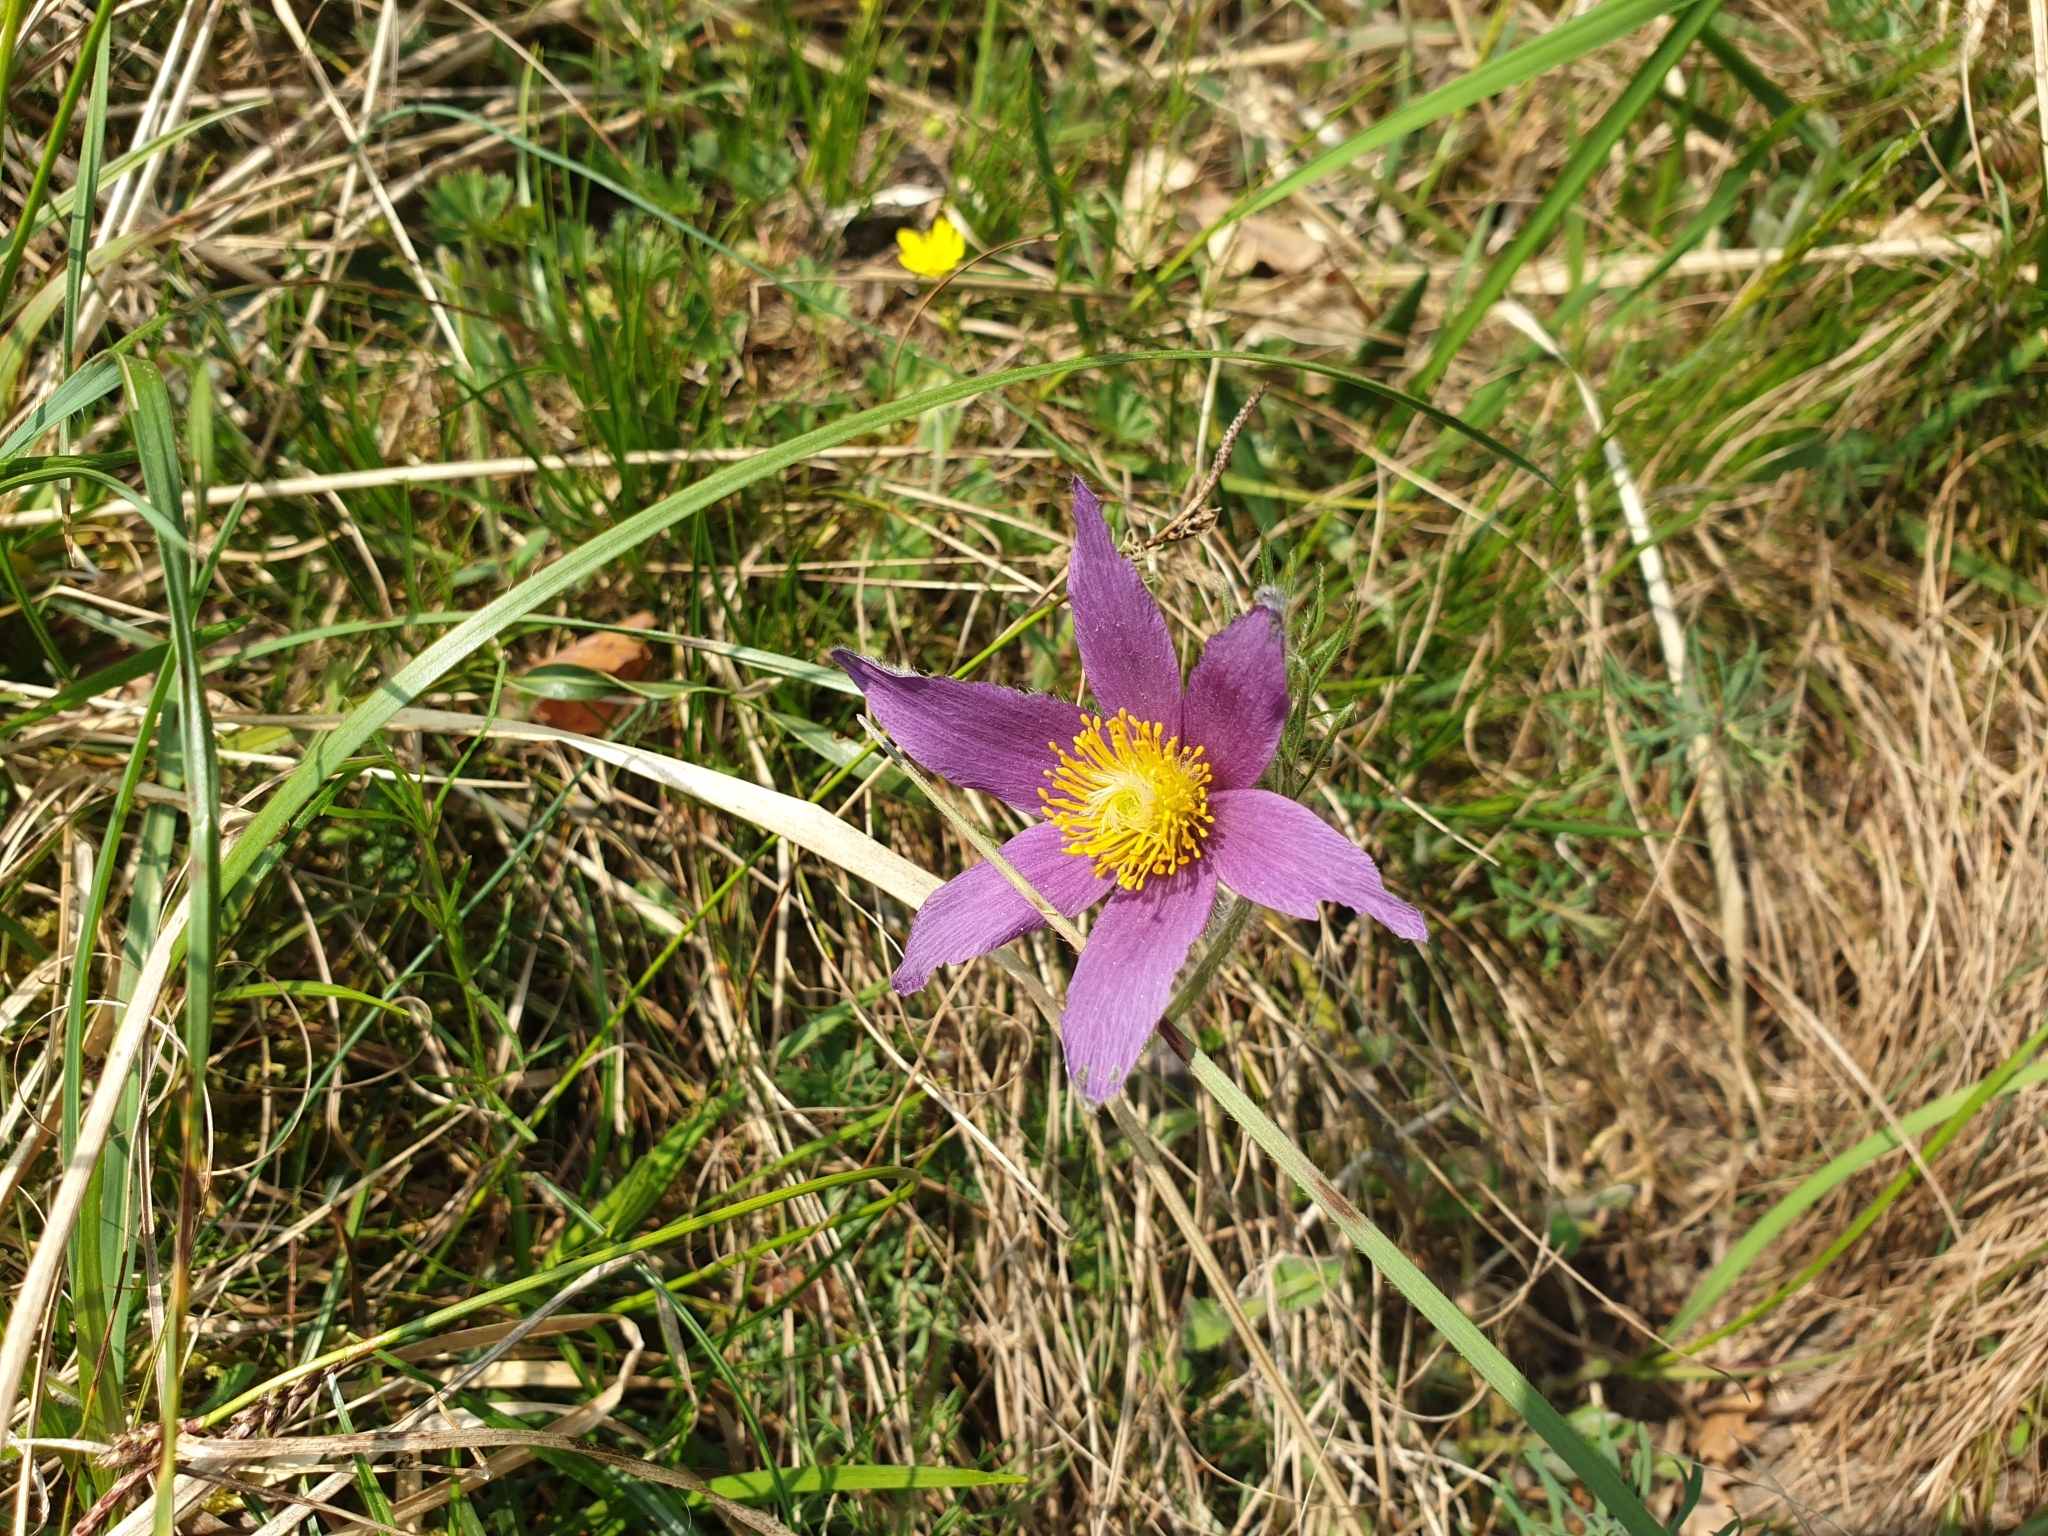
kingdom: Plantae
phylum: Tracheophyta
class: Magnoliopsida
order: Ranunculales
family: Ranunculaceae
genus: Pulsatilla
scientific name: Pulsatilla vulgaris
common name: Pasqueflower
